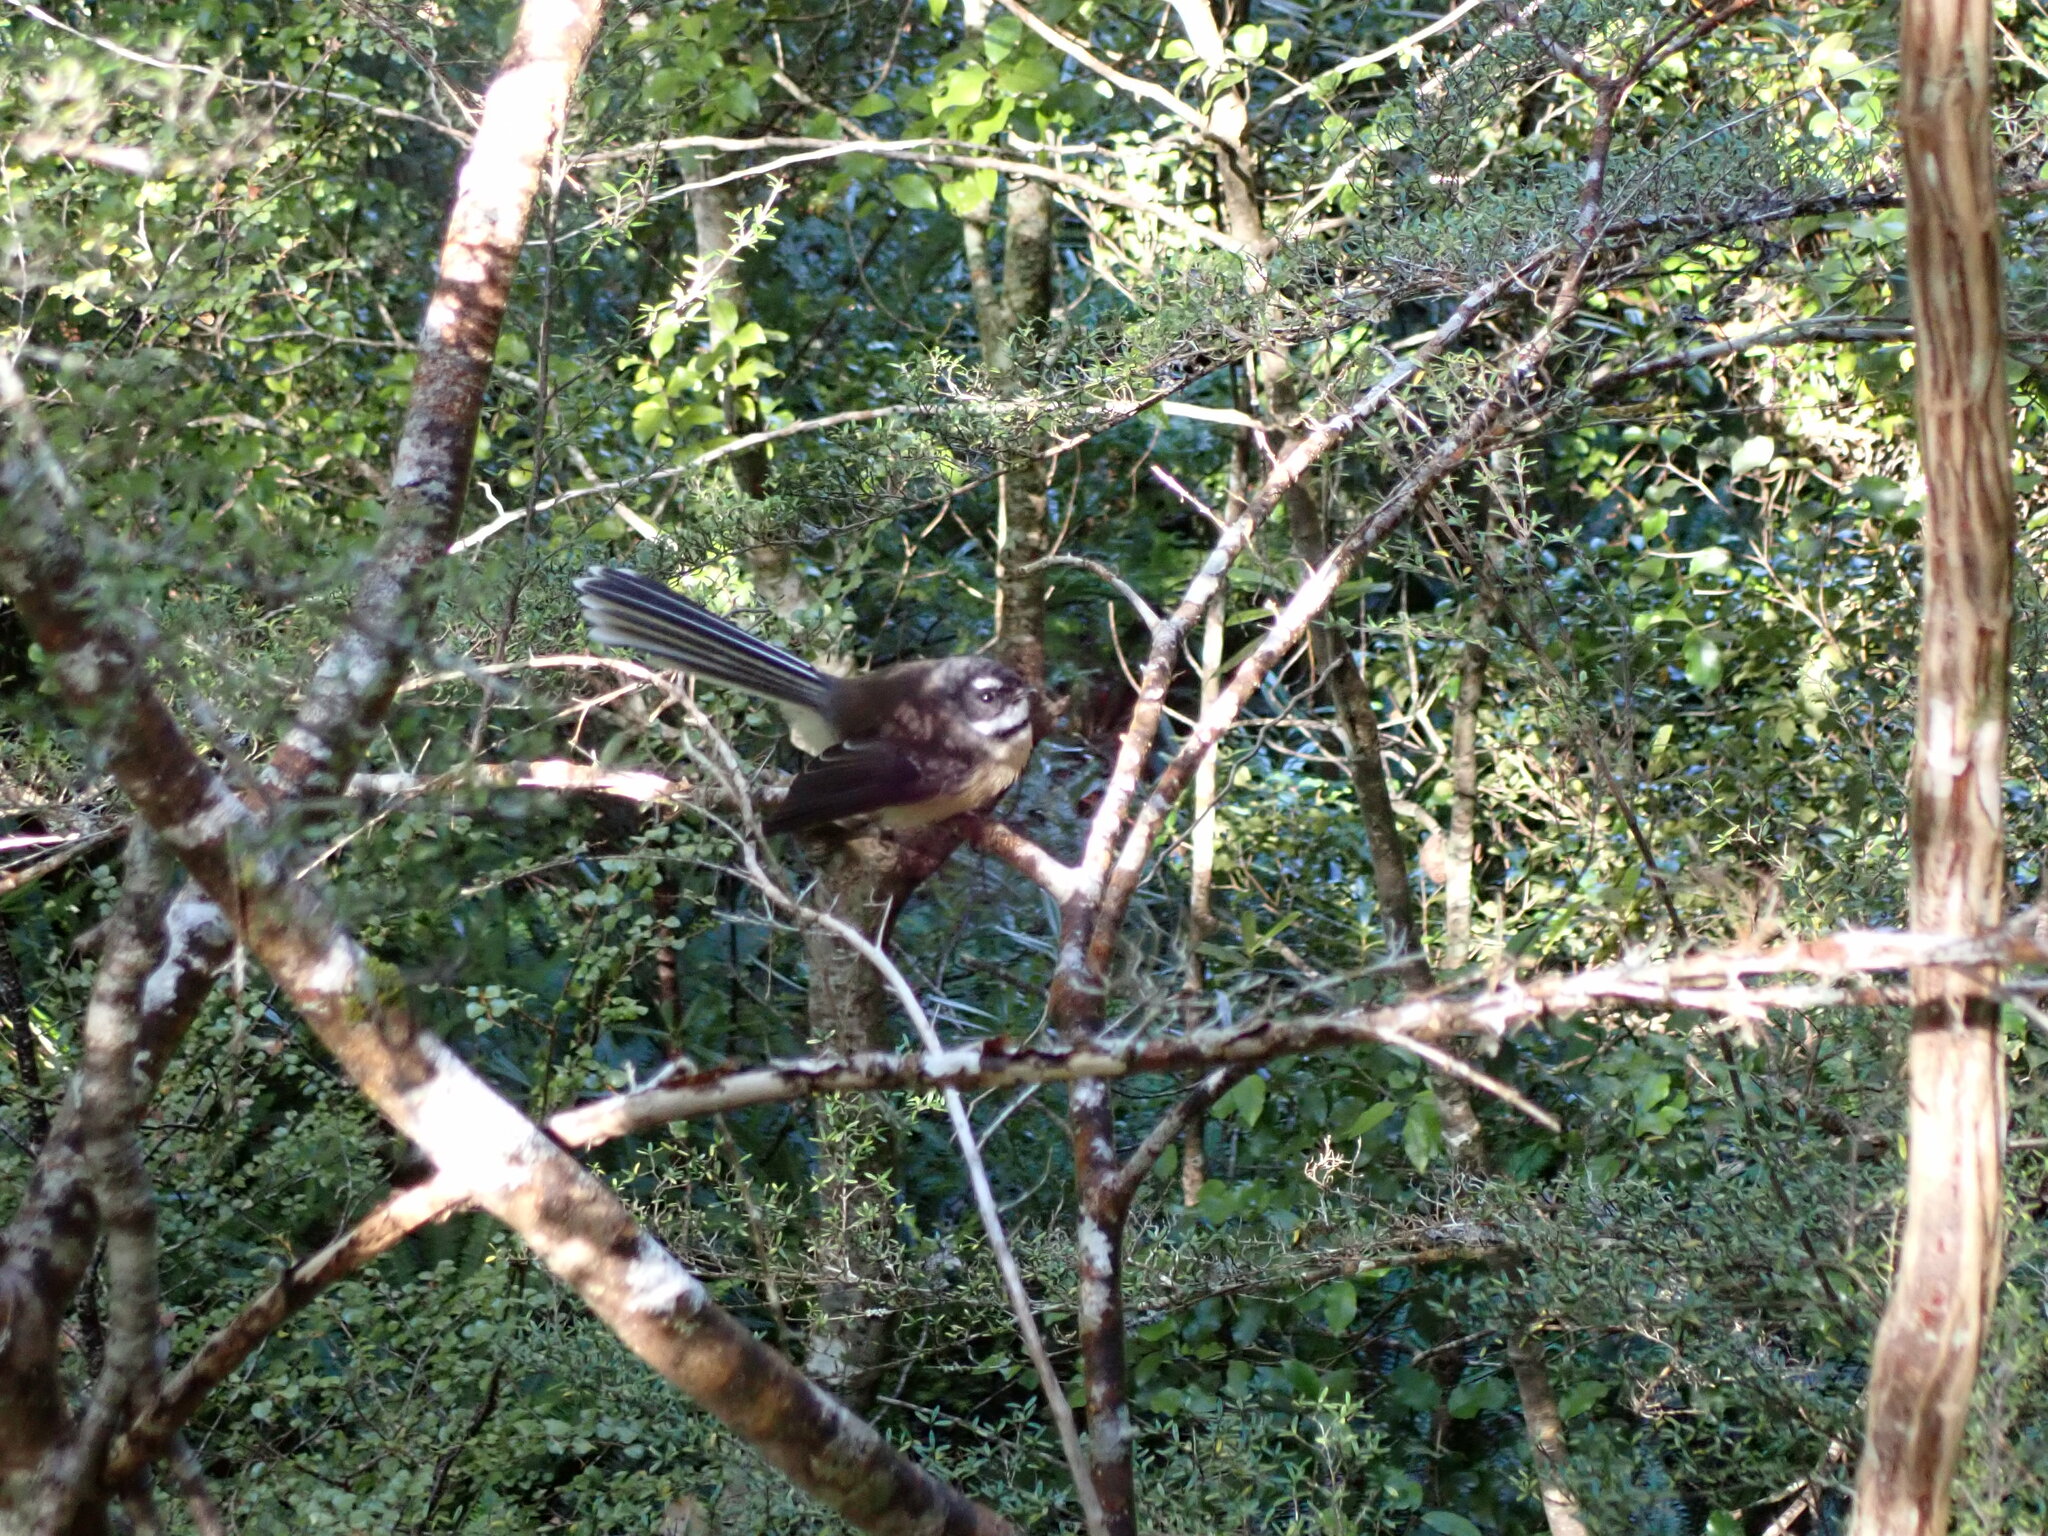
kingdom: Animalia
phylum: Chordata
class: Aves
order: Passeriformes
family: Rhipiduridae
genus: Rhipidura
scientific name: Rhipidura fuliginosa
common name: New zealand fantail
